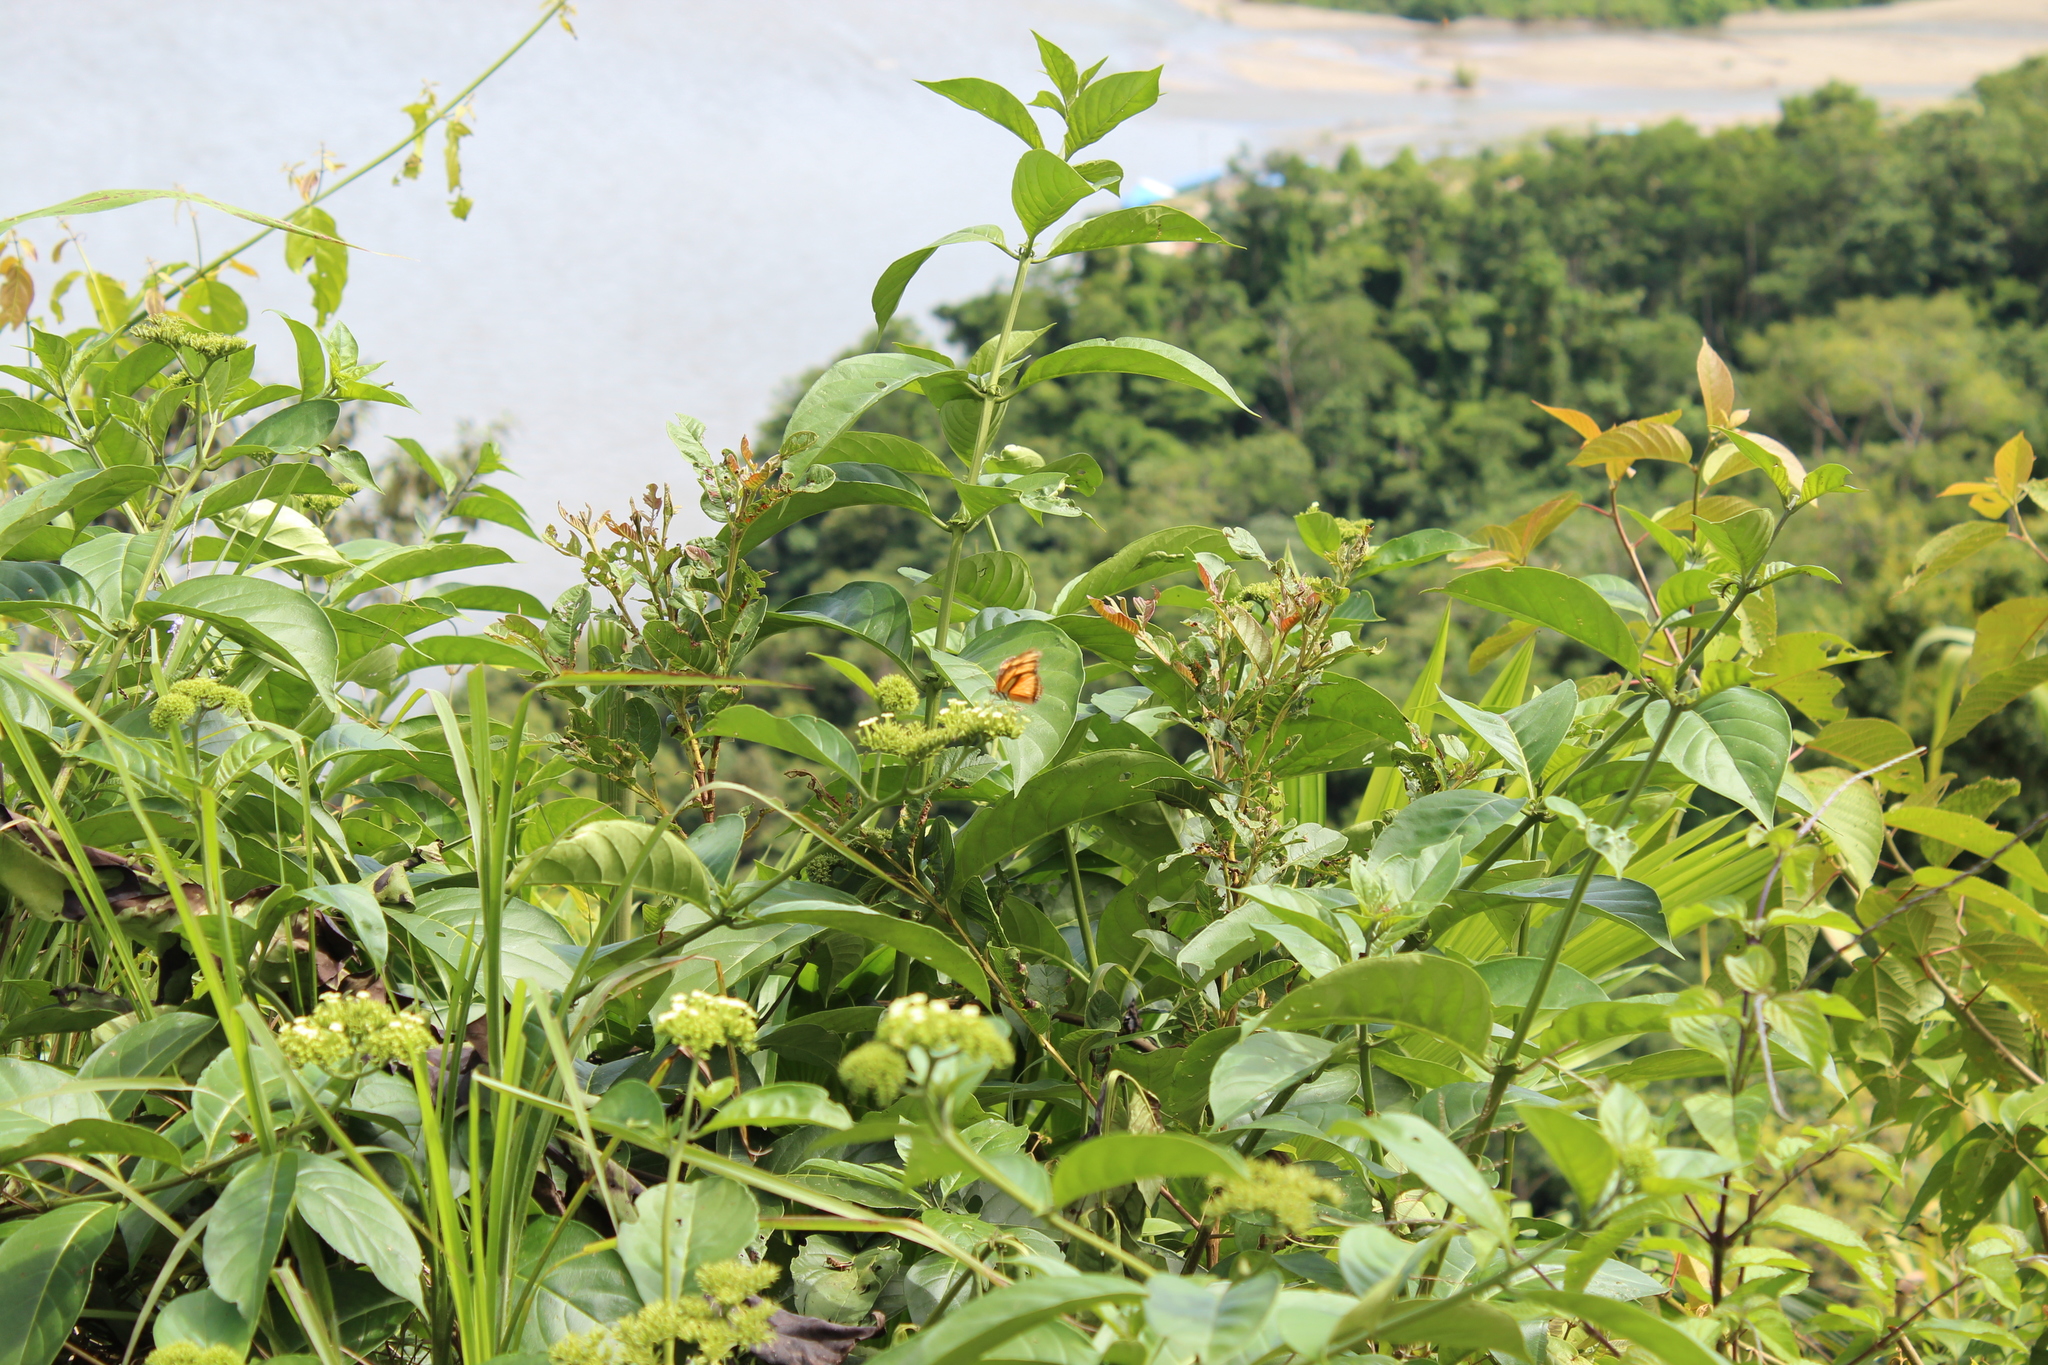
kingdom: Animalia
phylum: Arthropoda
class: Insecta
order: Lepidoptera
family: Nymphalidae
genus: Dryas
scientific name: Dryas iulia
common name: Flambeau
